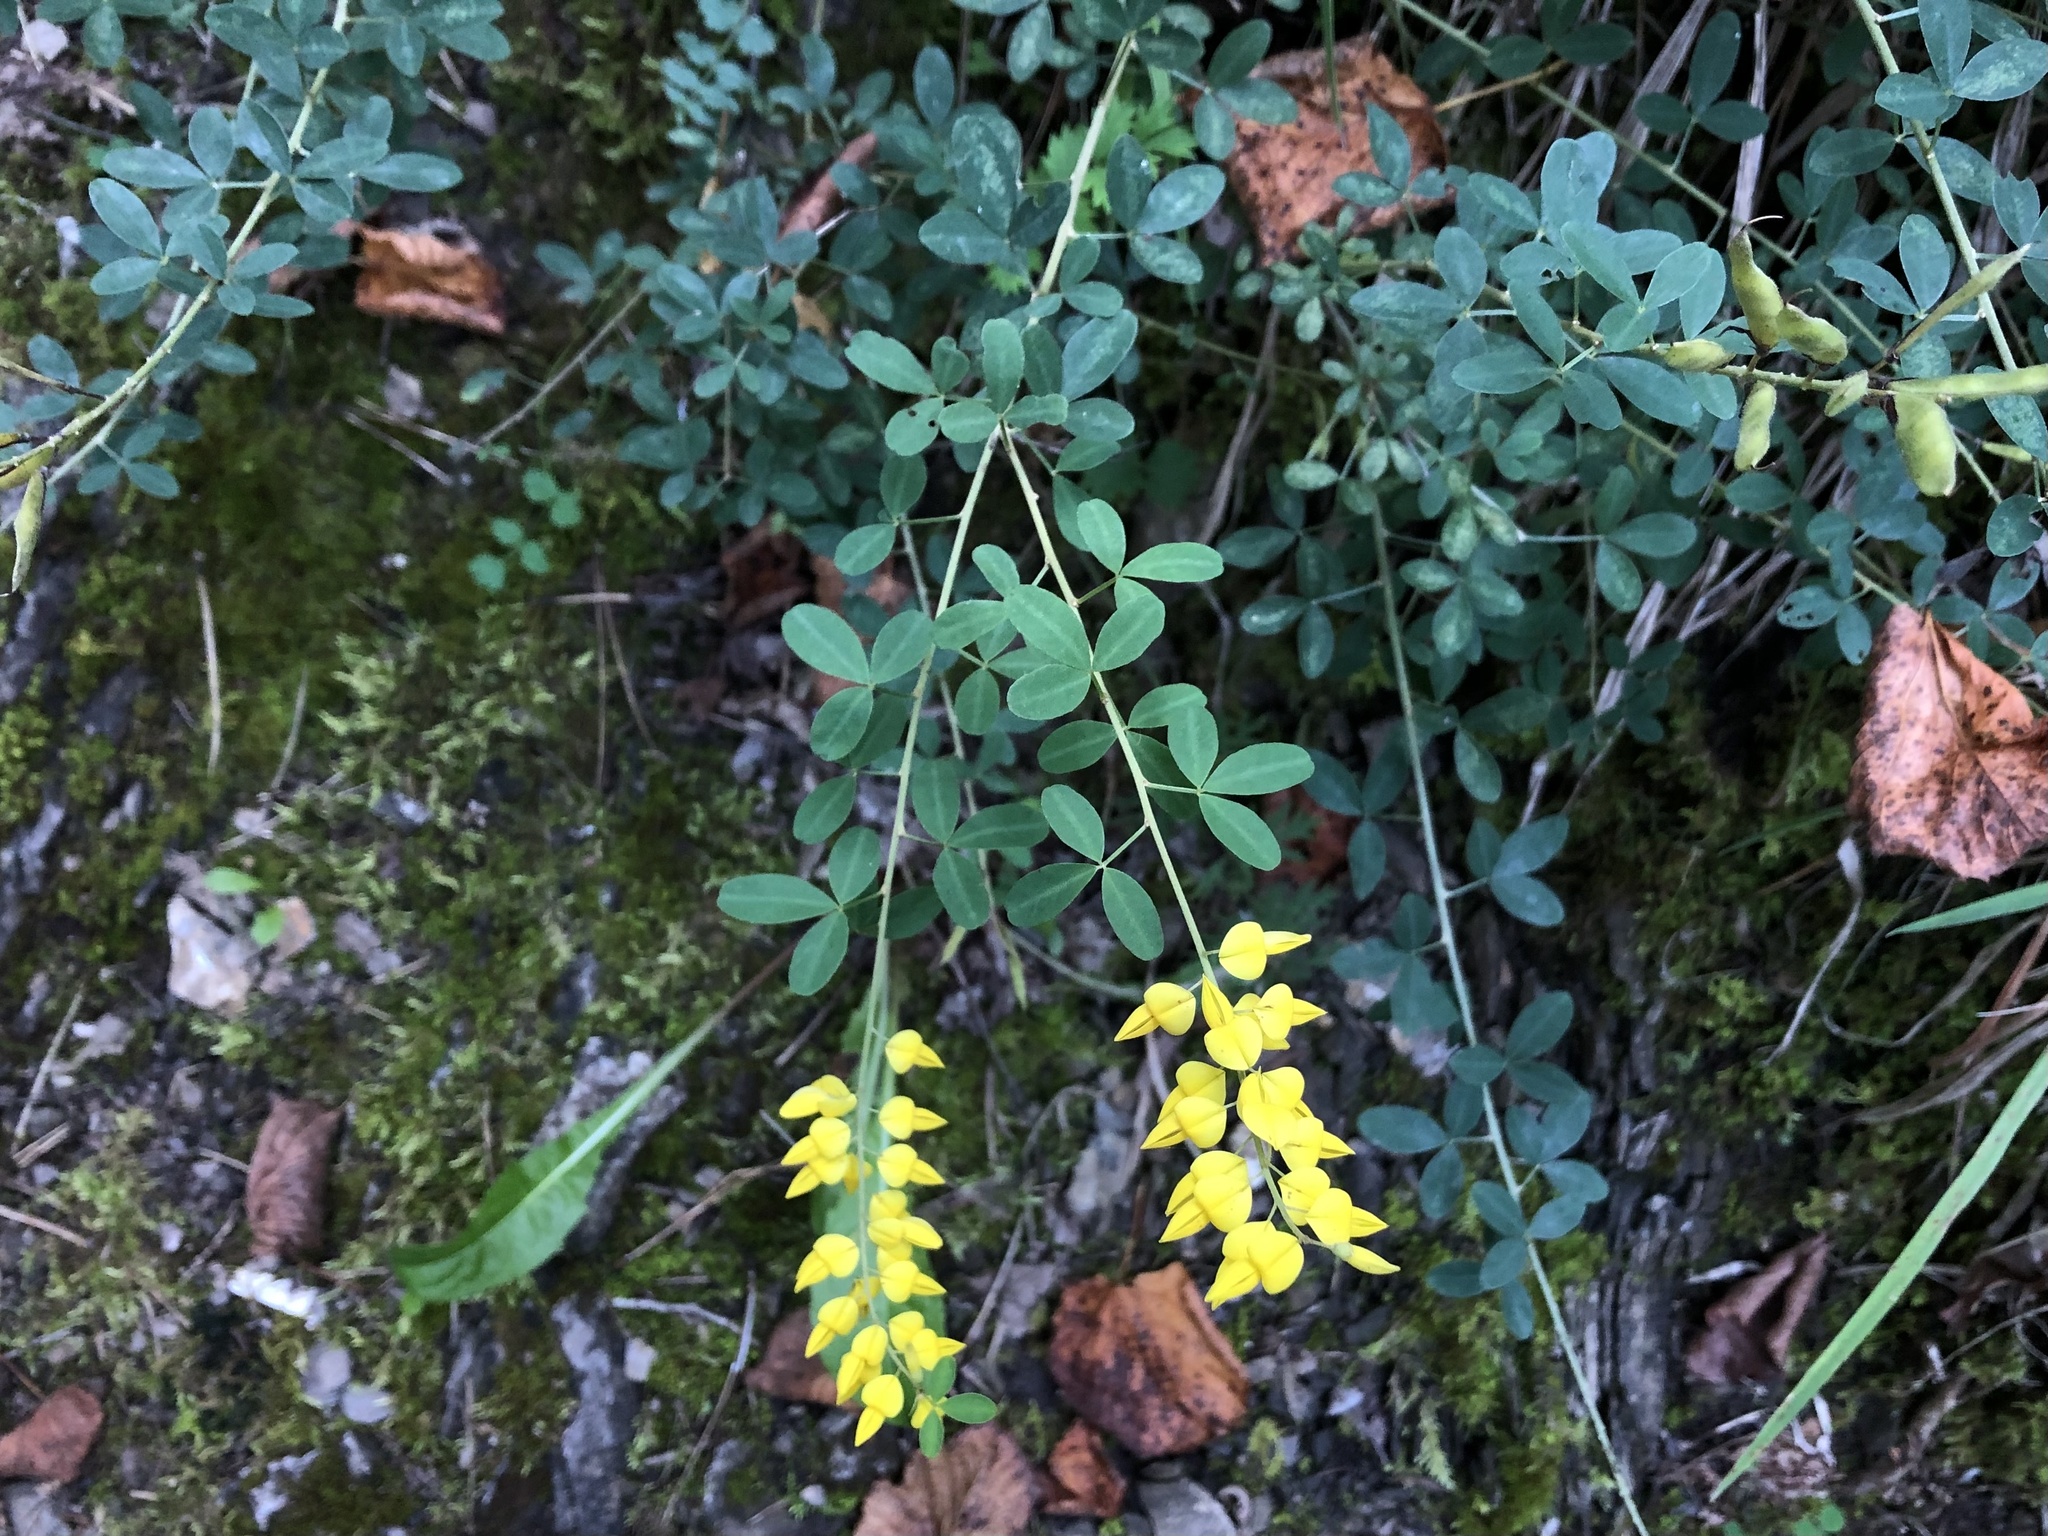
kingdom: Plantae
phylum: Tracheophyta
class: Magnoliopsida
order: Fabales
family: Fabaceae
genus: Cytisus
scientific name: Cytisus nigricans
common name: Black broom
